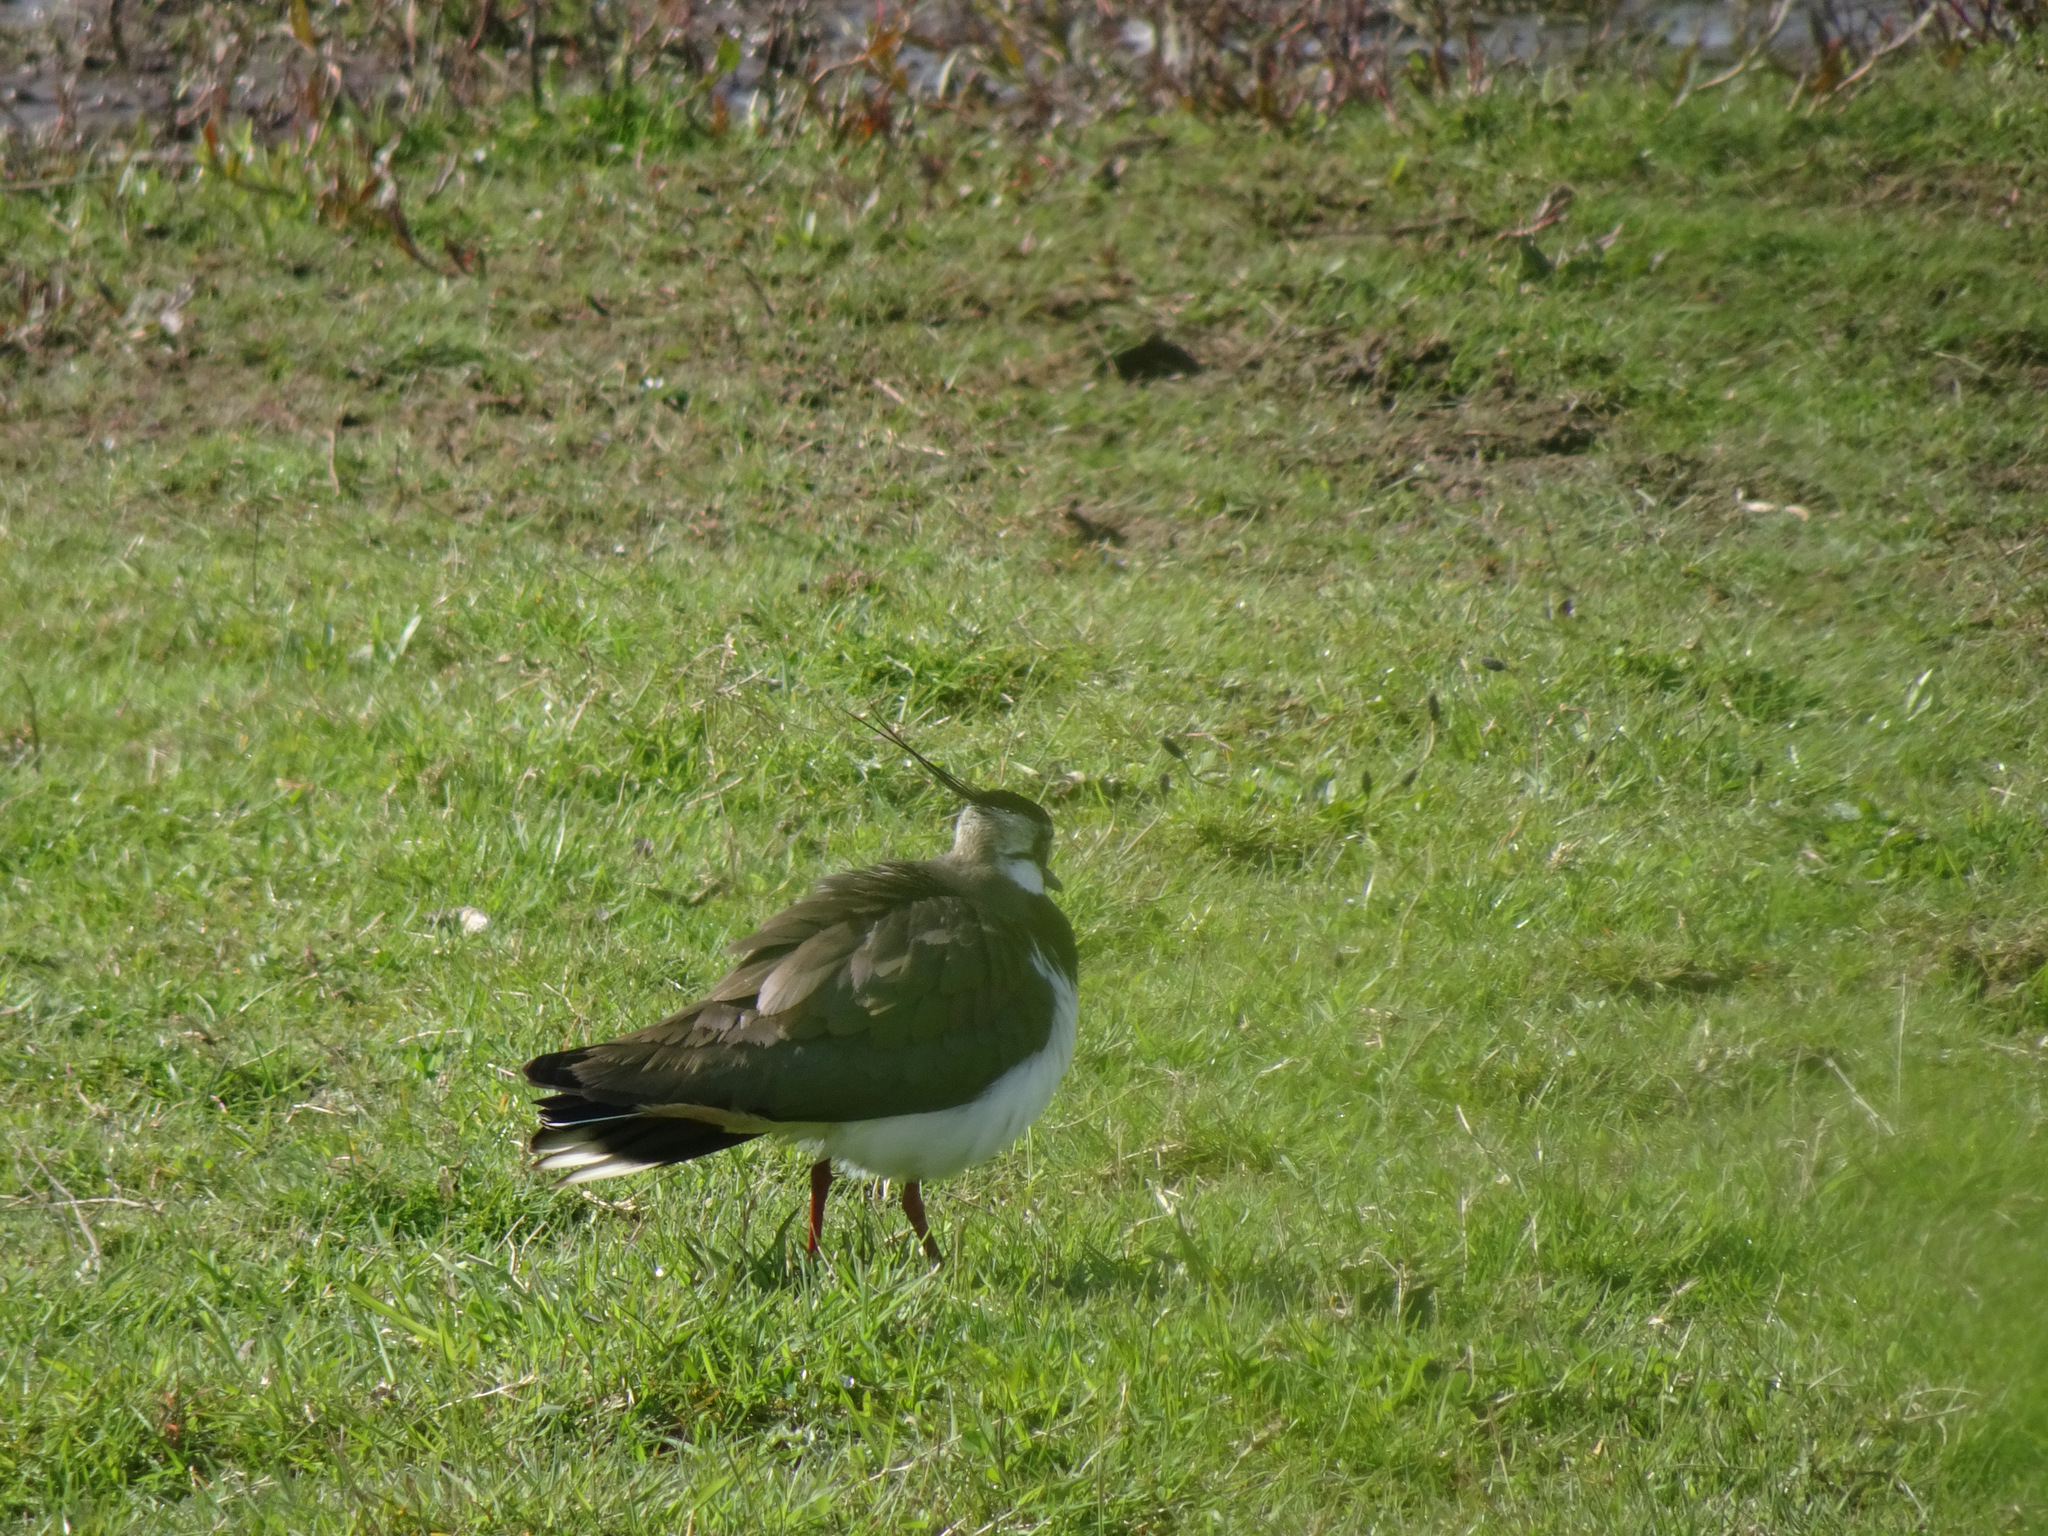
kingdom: Animalia
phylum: Chordata
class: Aves
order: Charadriiformes
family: Charadriidae
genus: Vanellus
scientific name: Vanellus vanellus
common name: Northern lapwing
